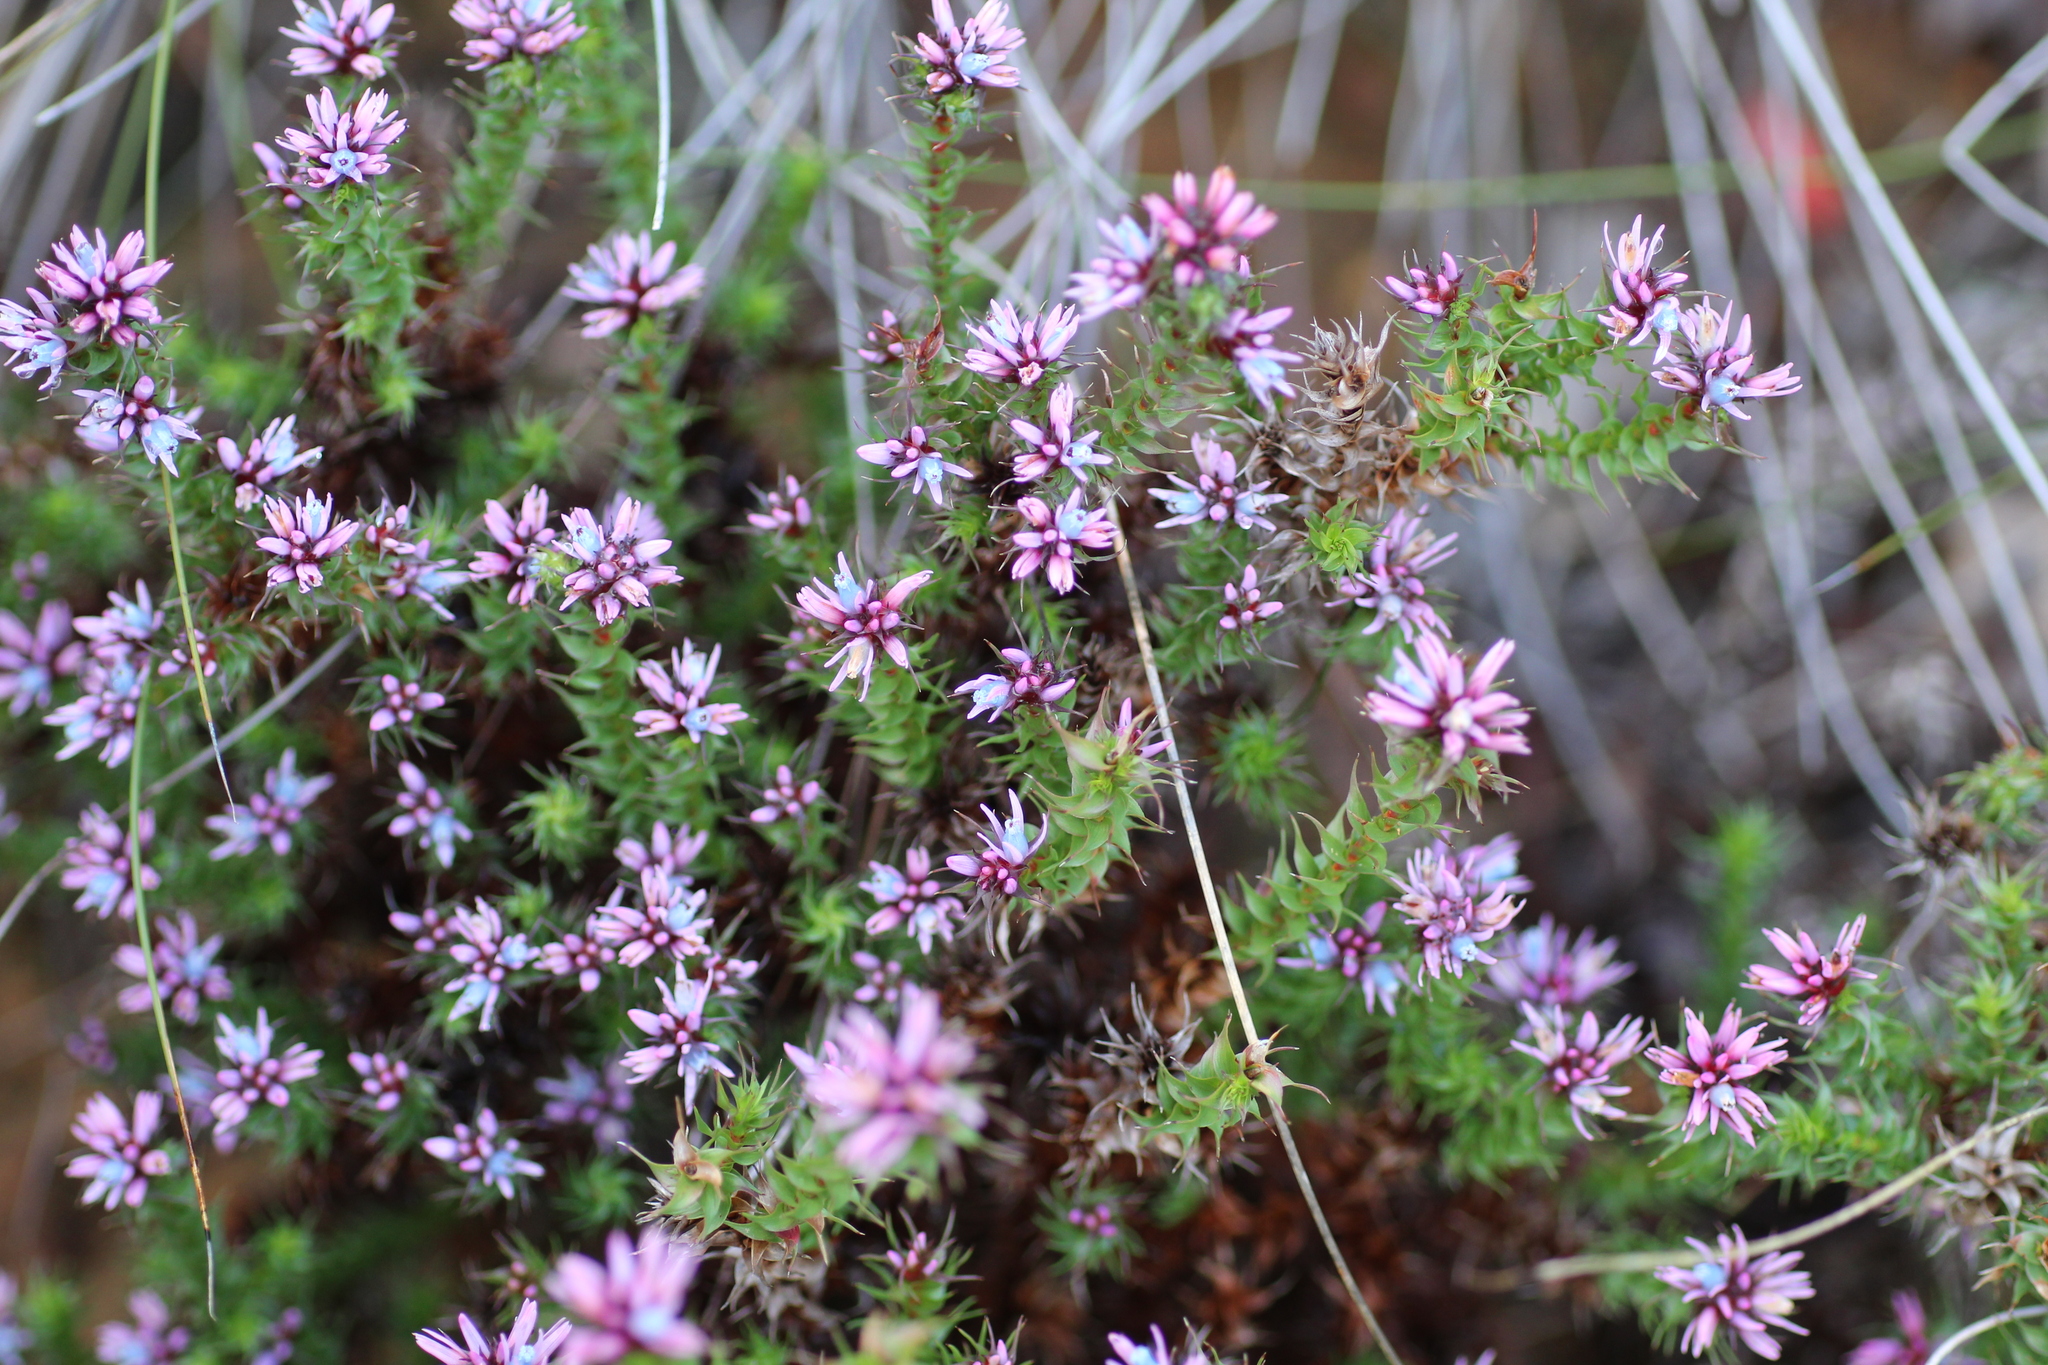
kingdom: Plantae
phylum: Tracheophyta
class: Magnoliopsida
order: Ericales
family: Ericaceae
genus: Andersonia
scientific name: Andersonia lehmanniana
